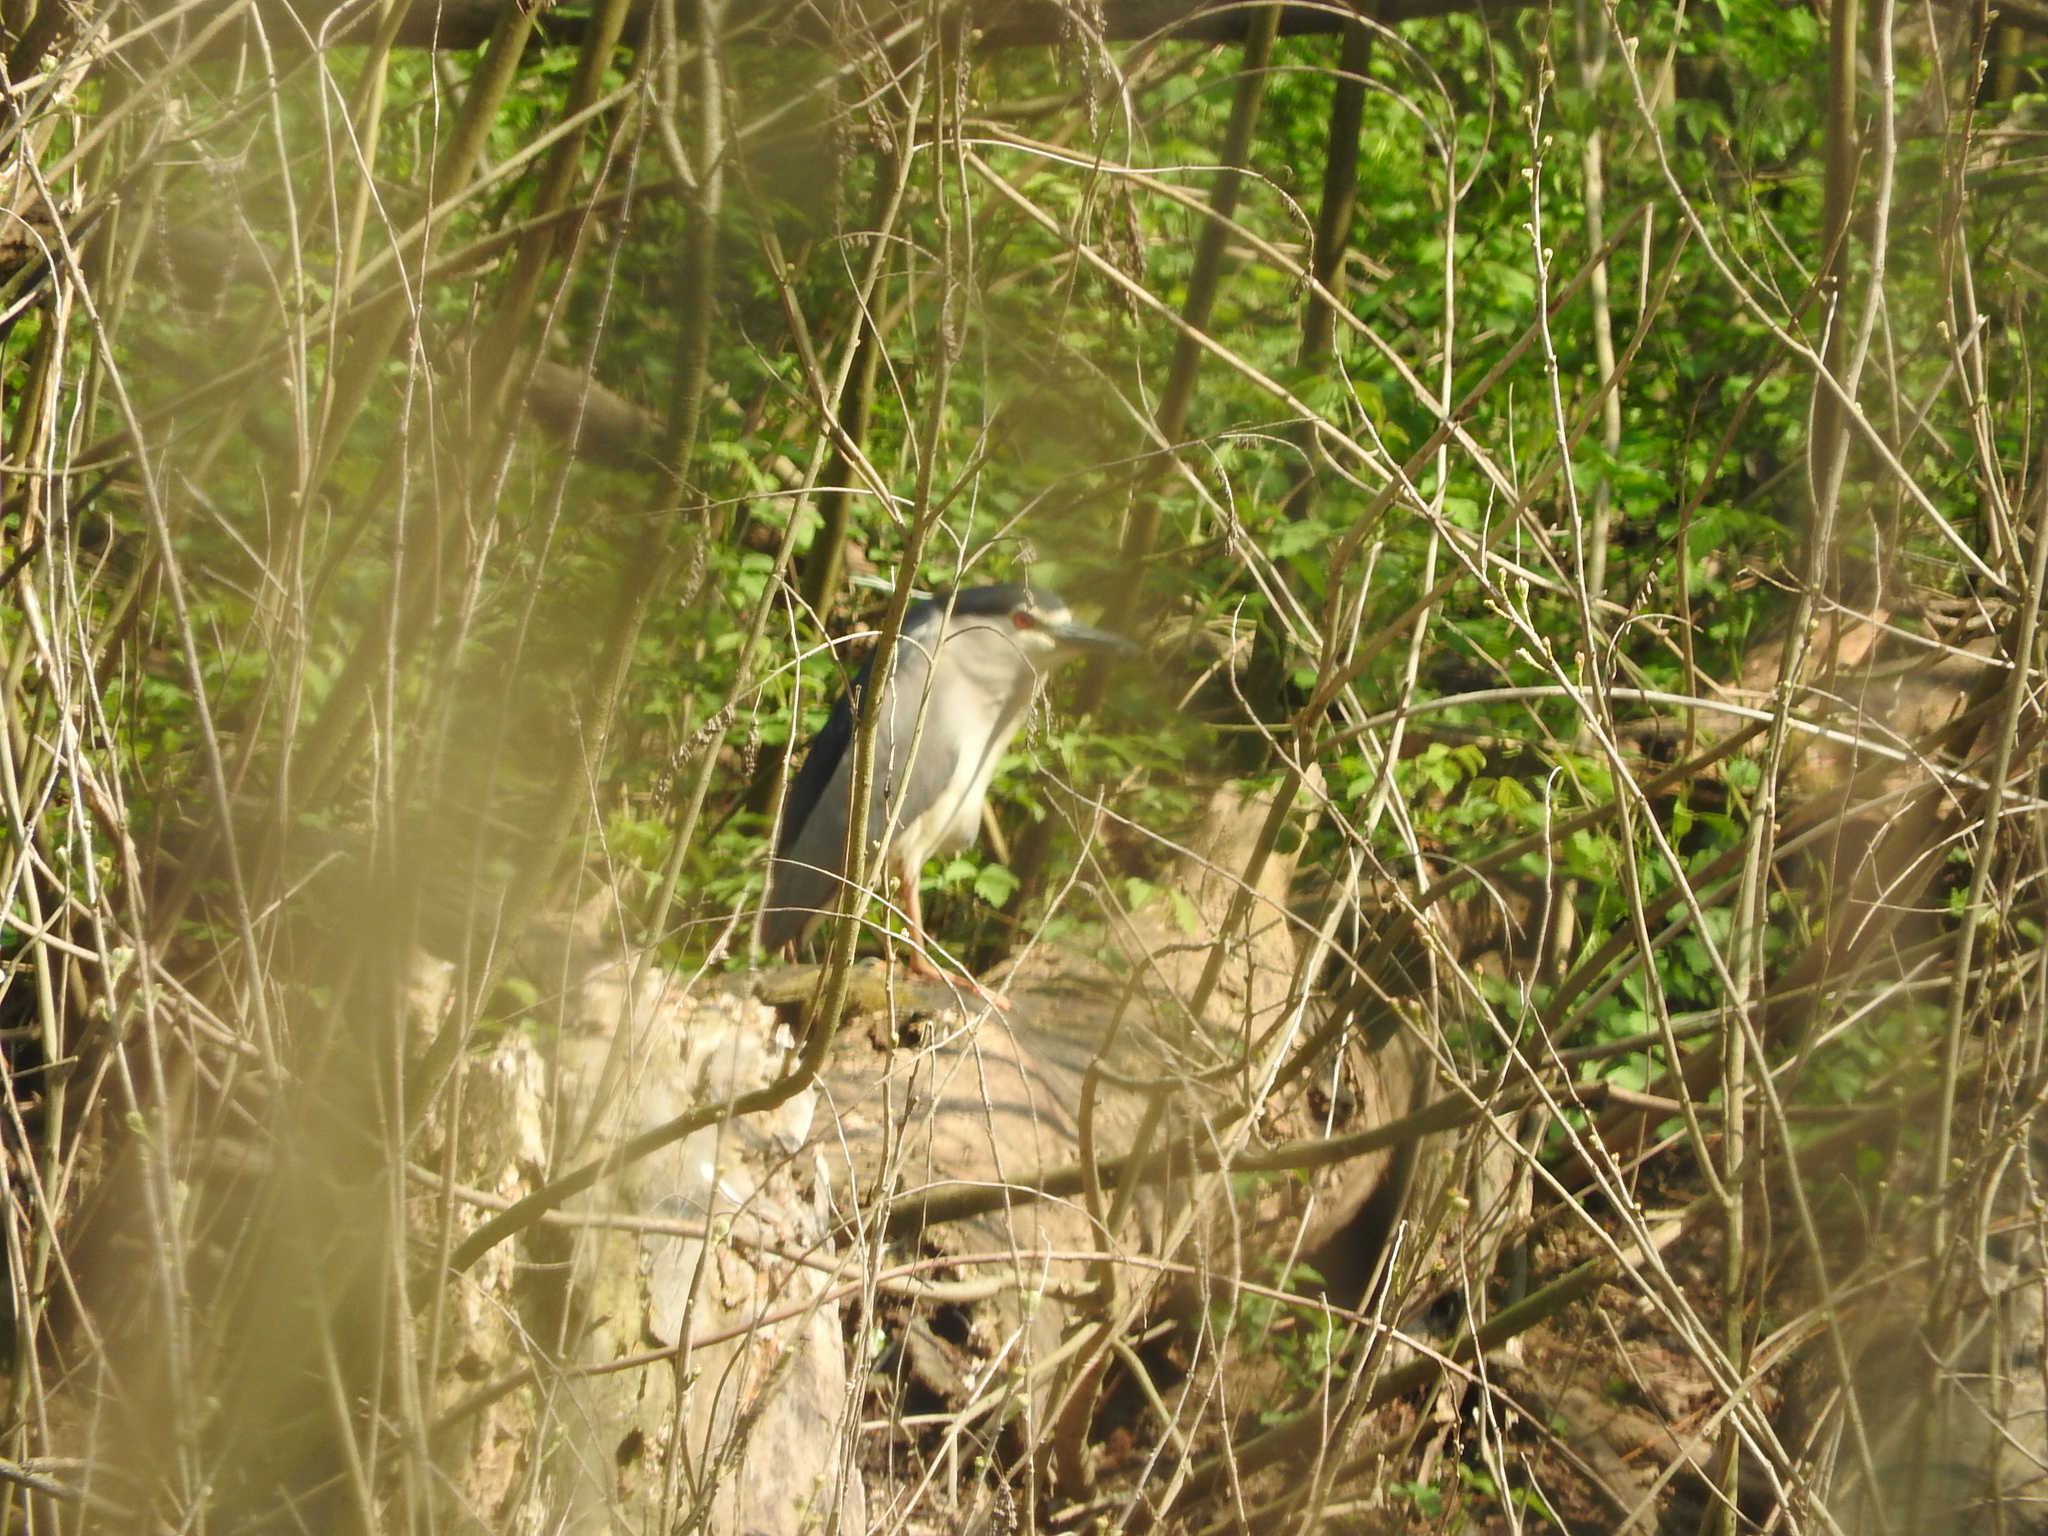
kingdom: Animalia
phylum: Chordata
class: Aves
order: Pelecaniformes
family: Ardeidae
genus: Nycticorax
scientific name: Nycticorax nycticorax
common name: Black-crowned night heron
